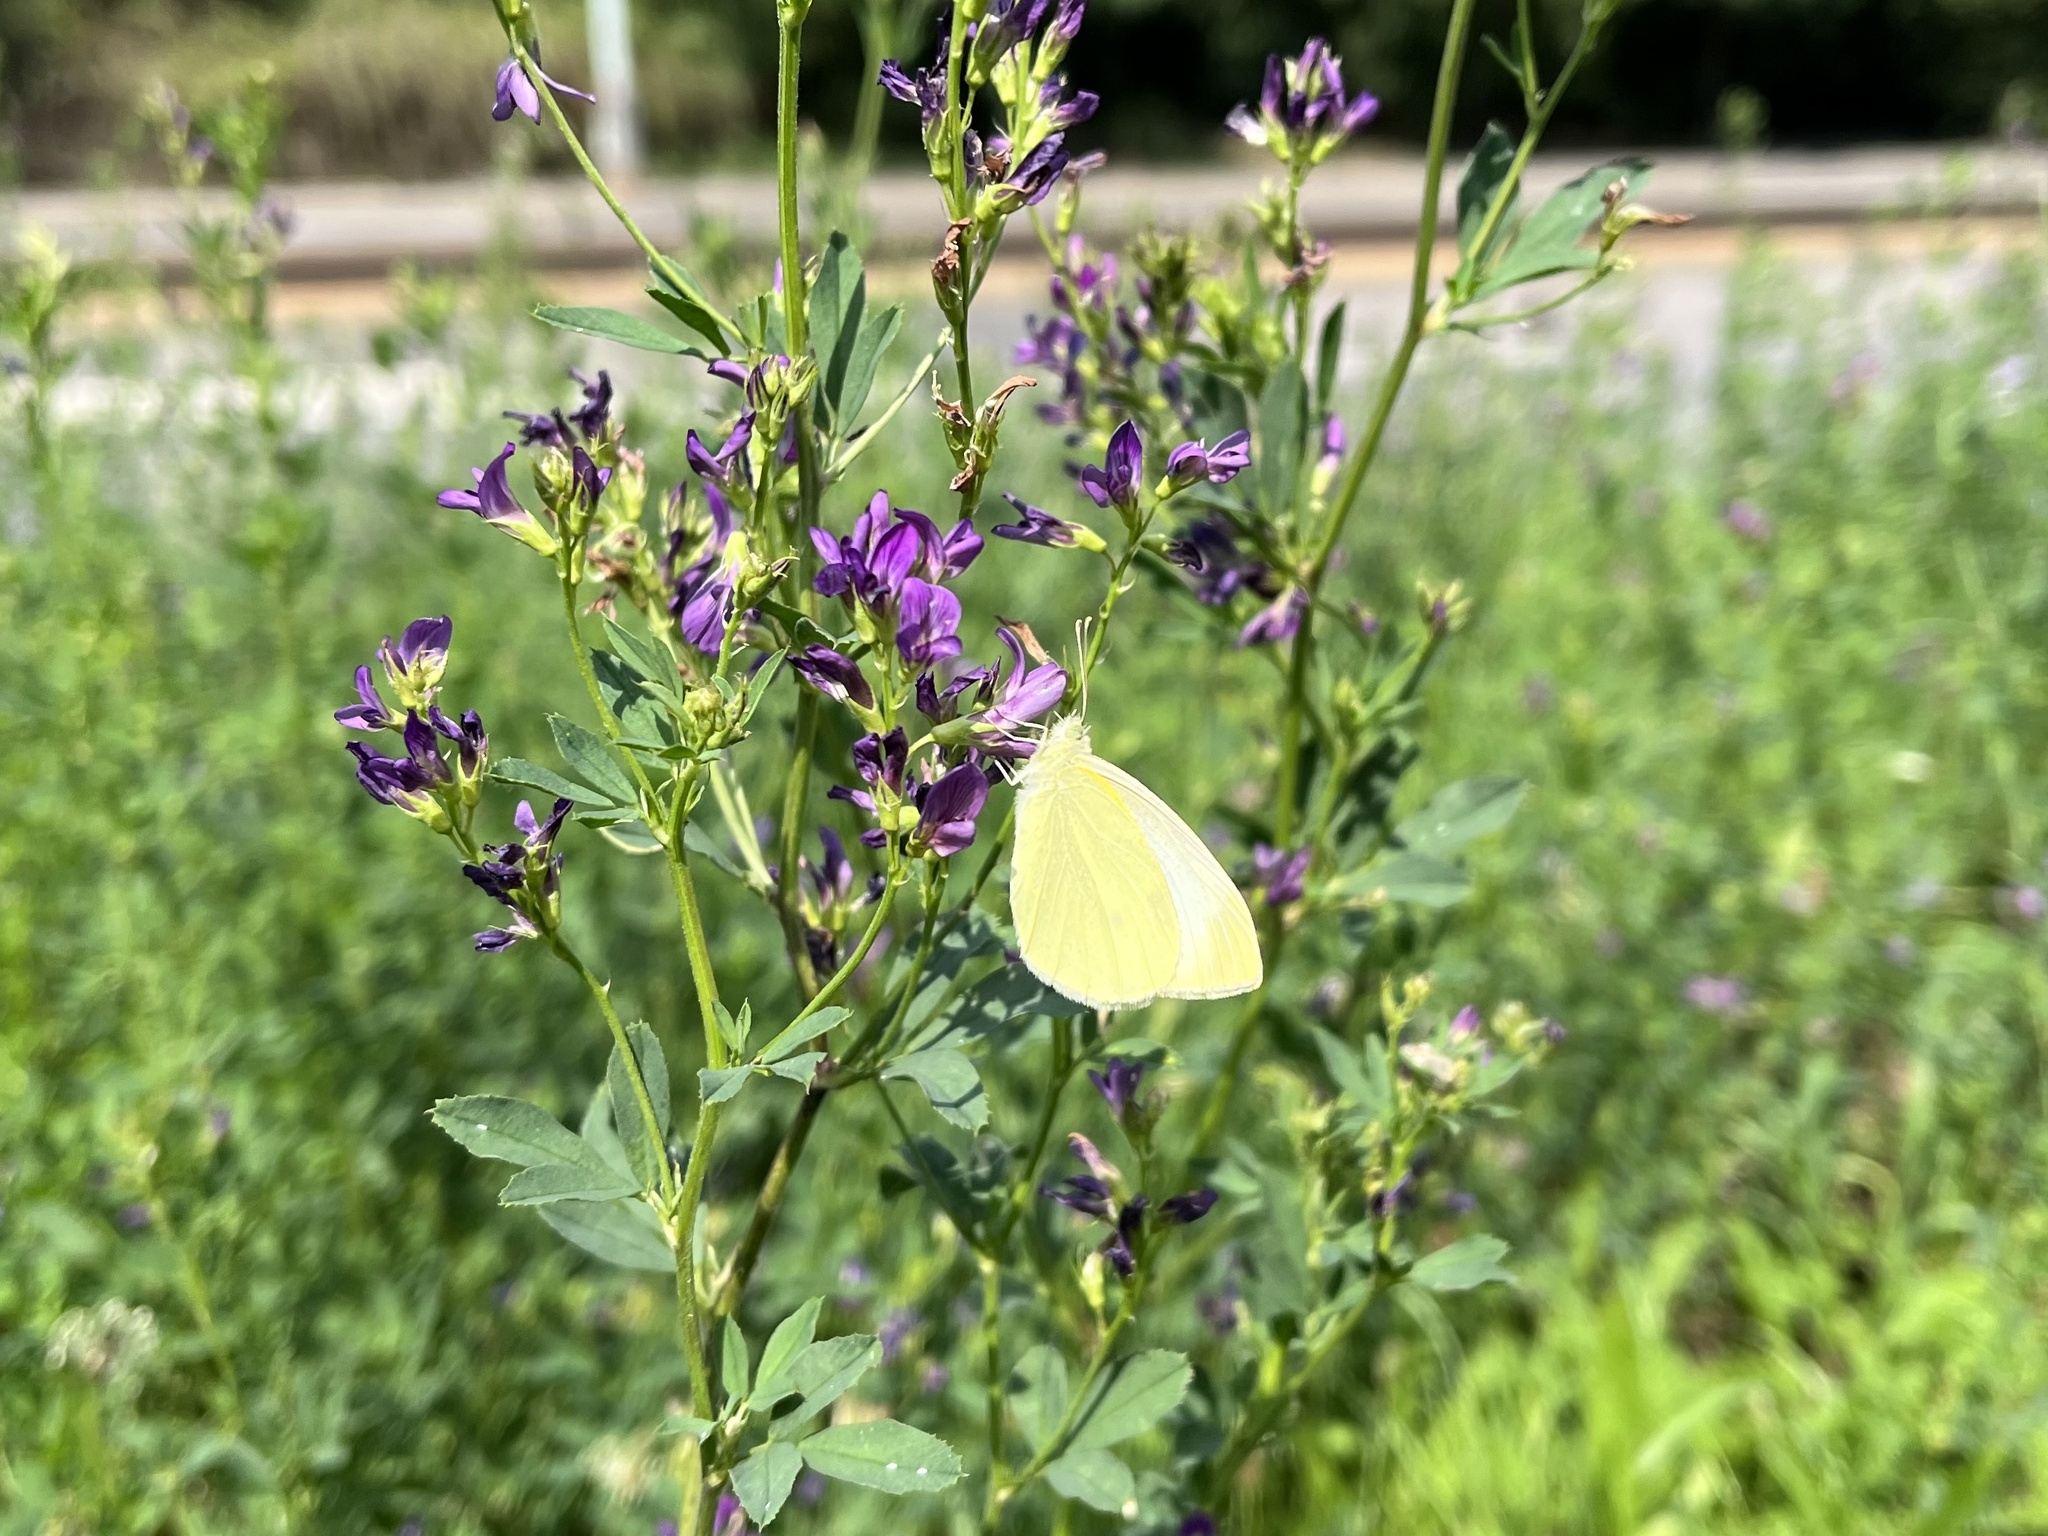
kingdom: Animalia
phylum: Arthropoda
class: Insecta
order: Lepidoptera
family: Pieridae
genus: Pieris
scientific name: Pieris rapae
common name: Small white
